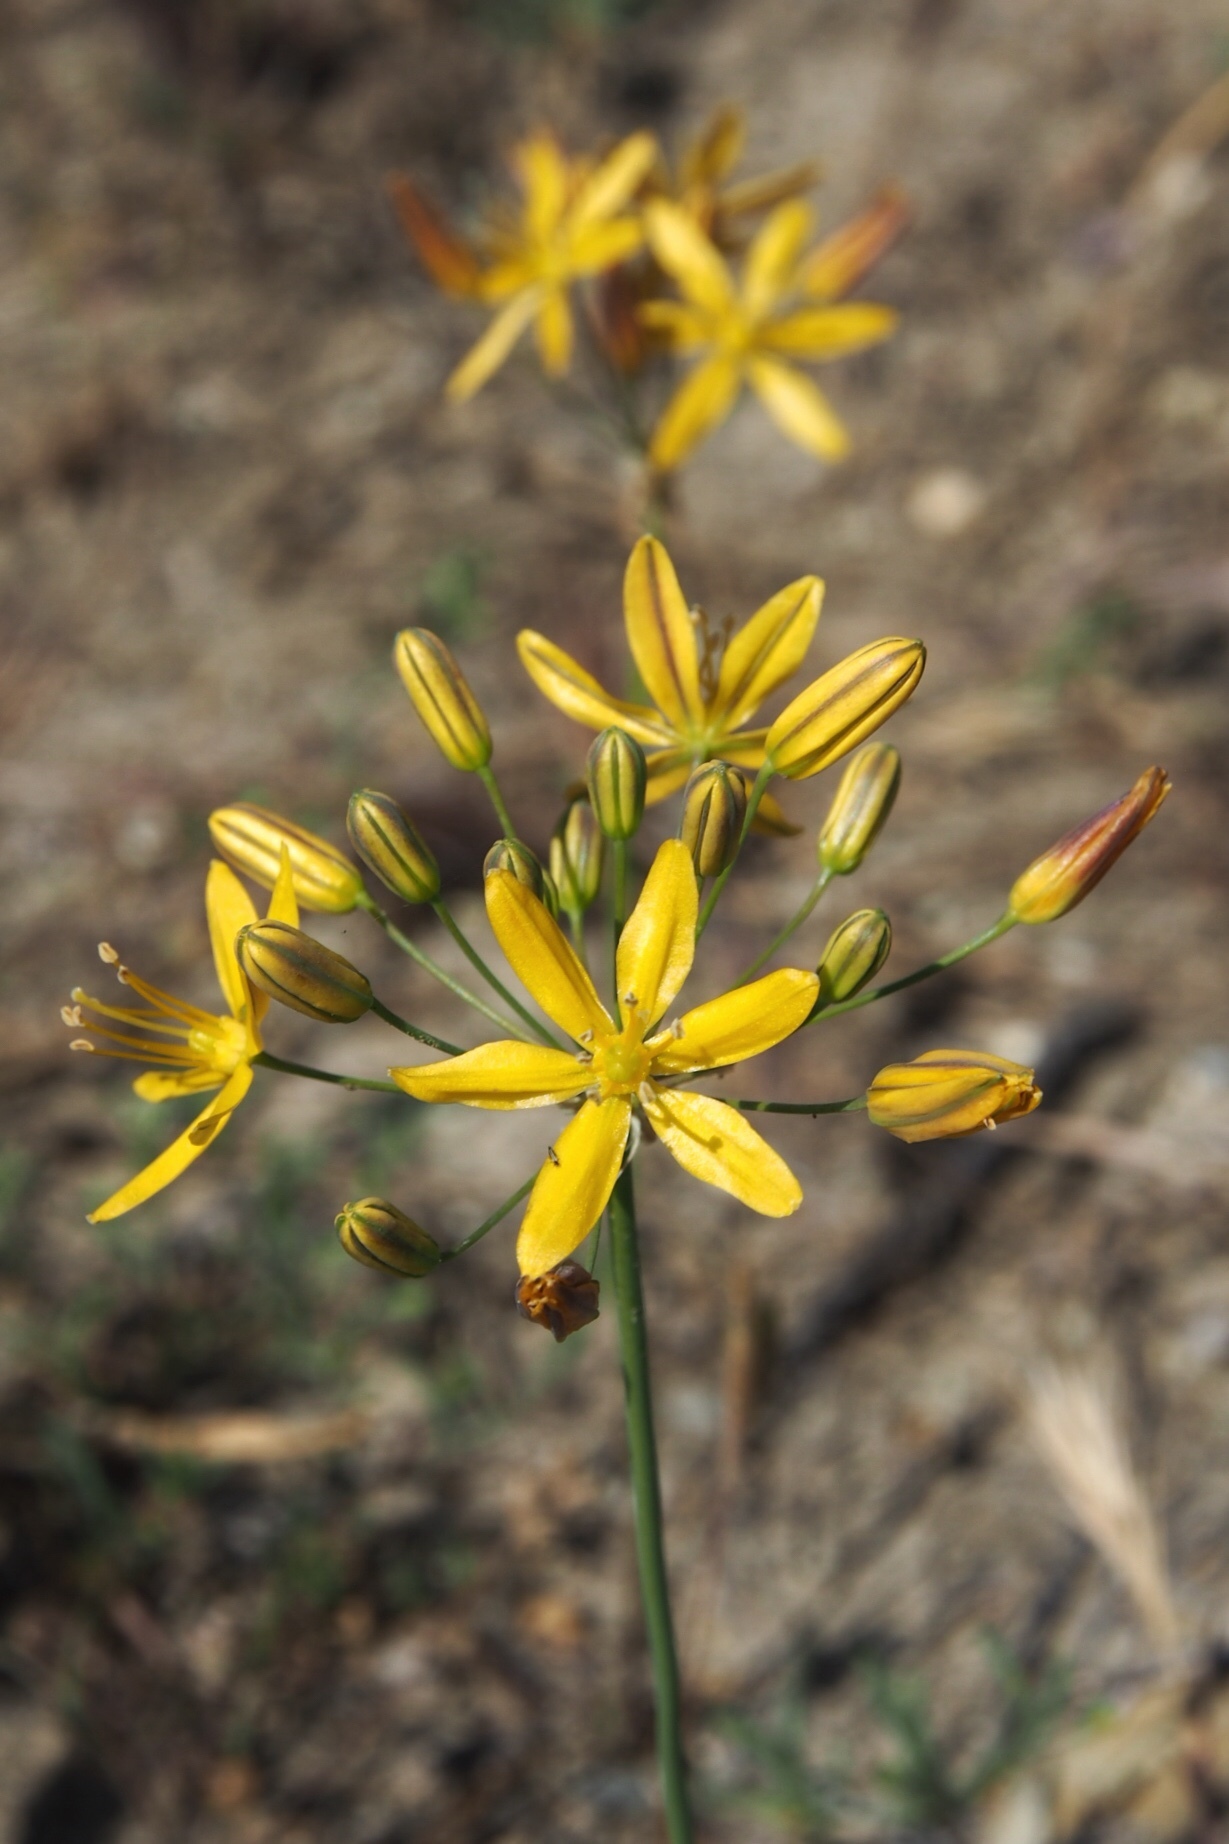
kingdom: Plantae
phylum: Tracheophyta
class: Liliopsida
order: Asparagales
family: Asparagaceae
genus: Bloomeria
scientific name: Bloomeria crocea
